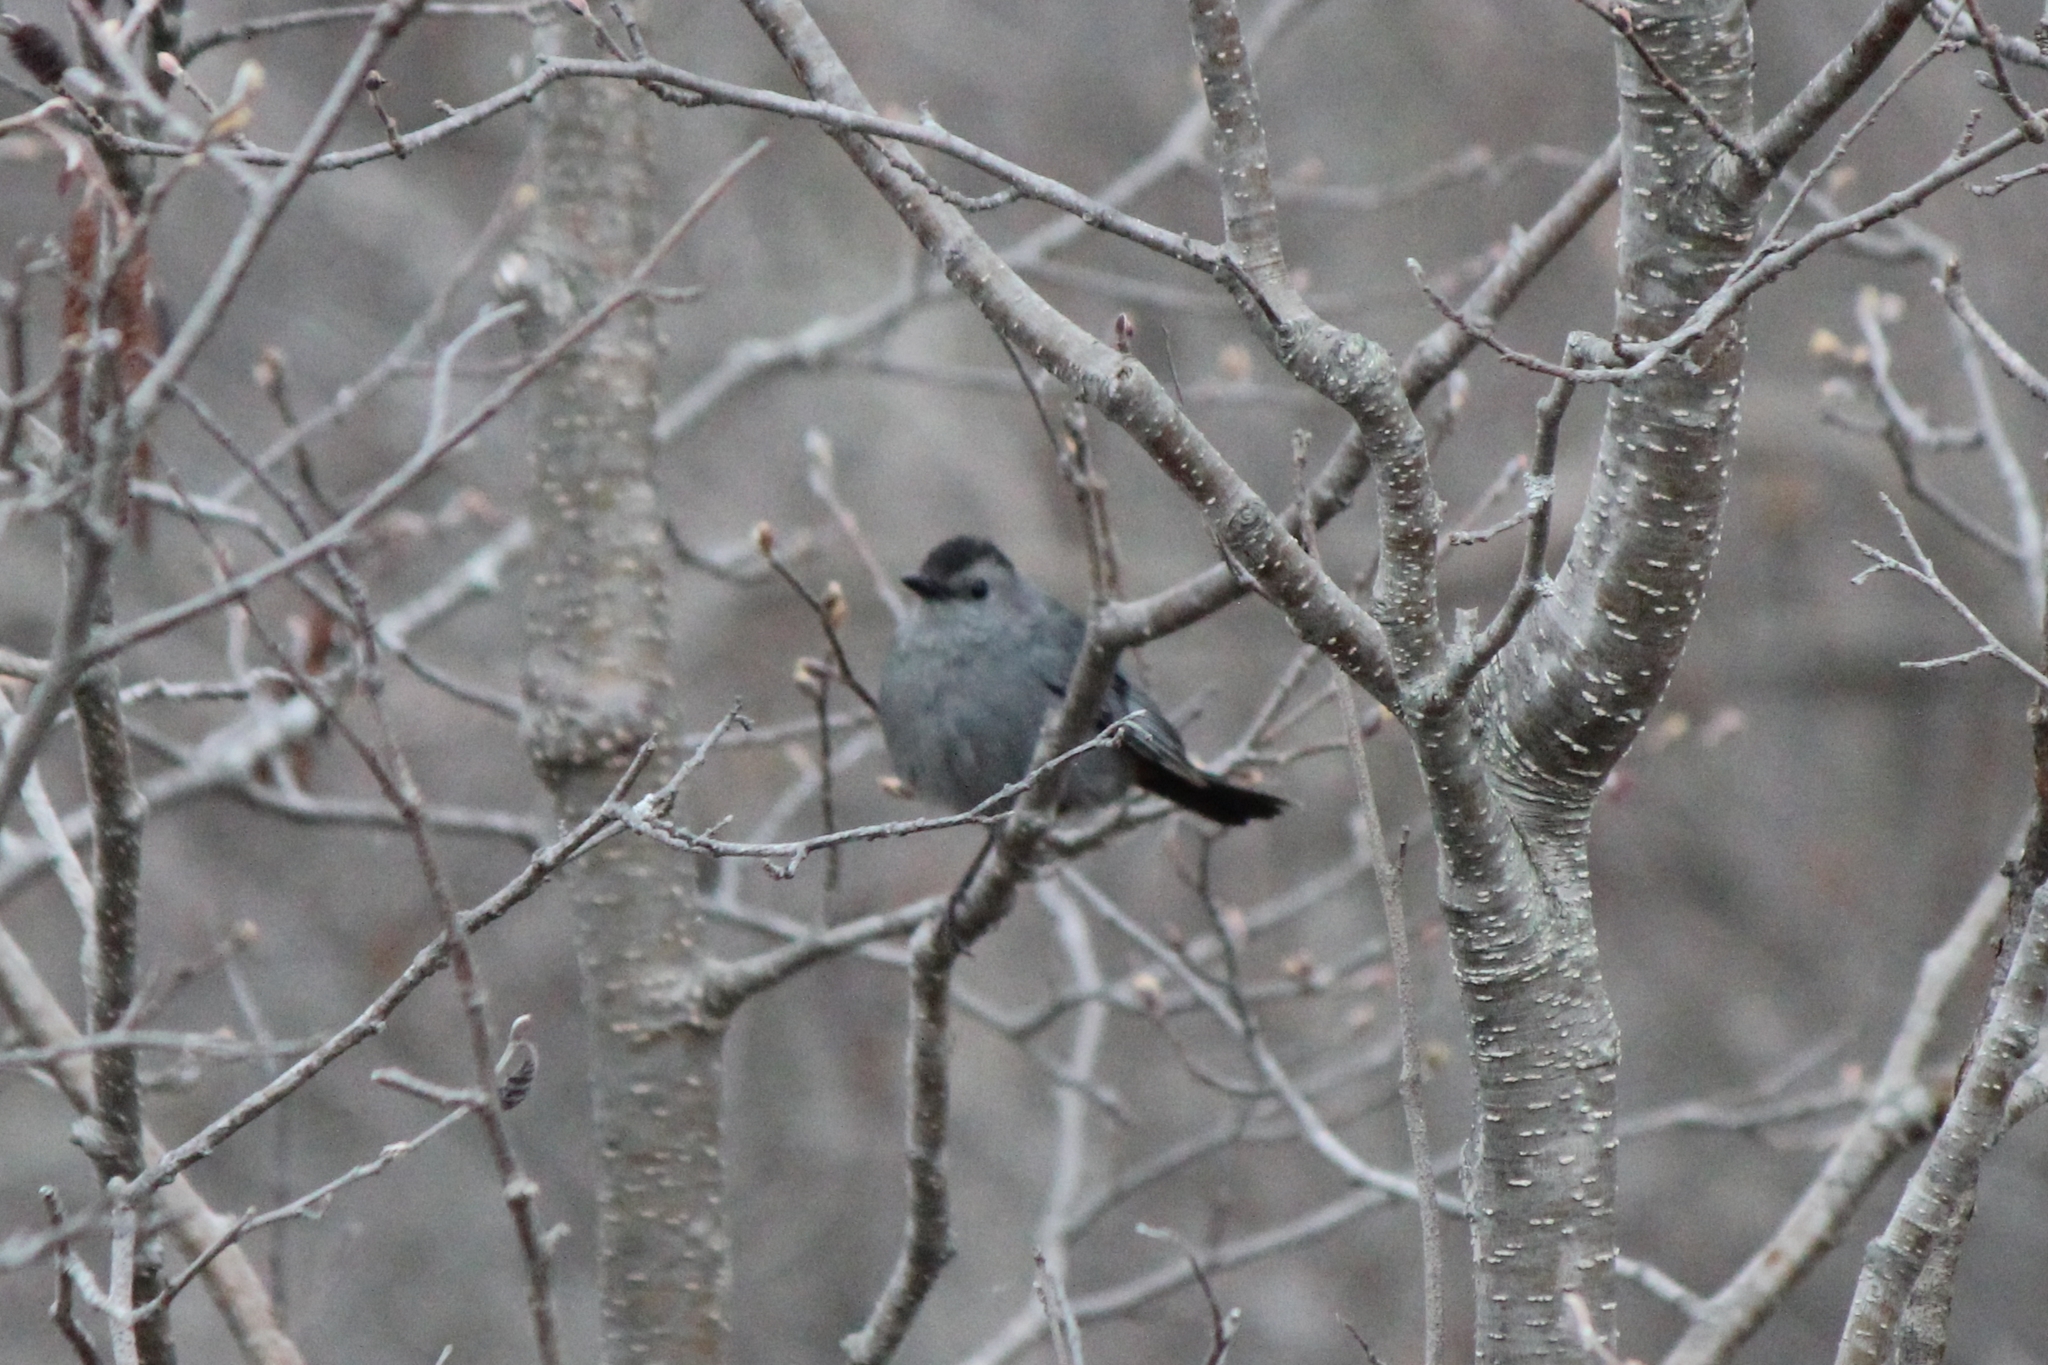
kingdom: Animalia
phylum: Chordata
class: Aves
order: Passeriformes
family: Mimidae
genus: Dumetella
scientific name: Dumetella carolinensis
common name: Gray catbird
